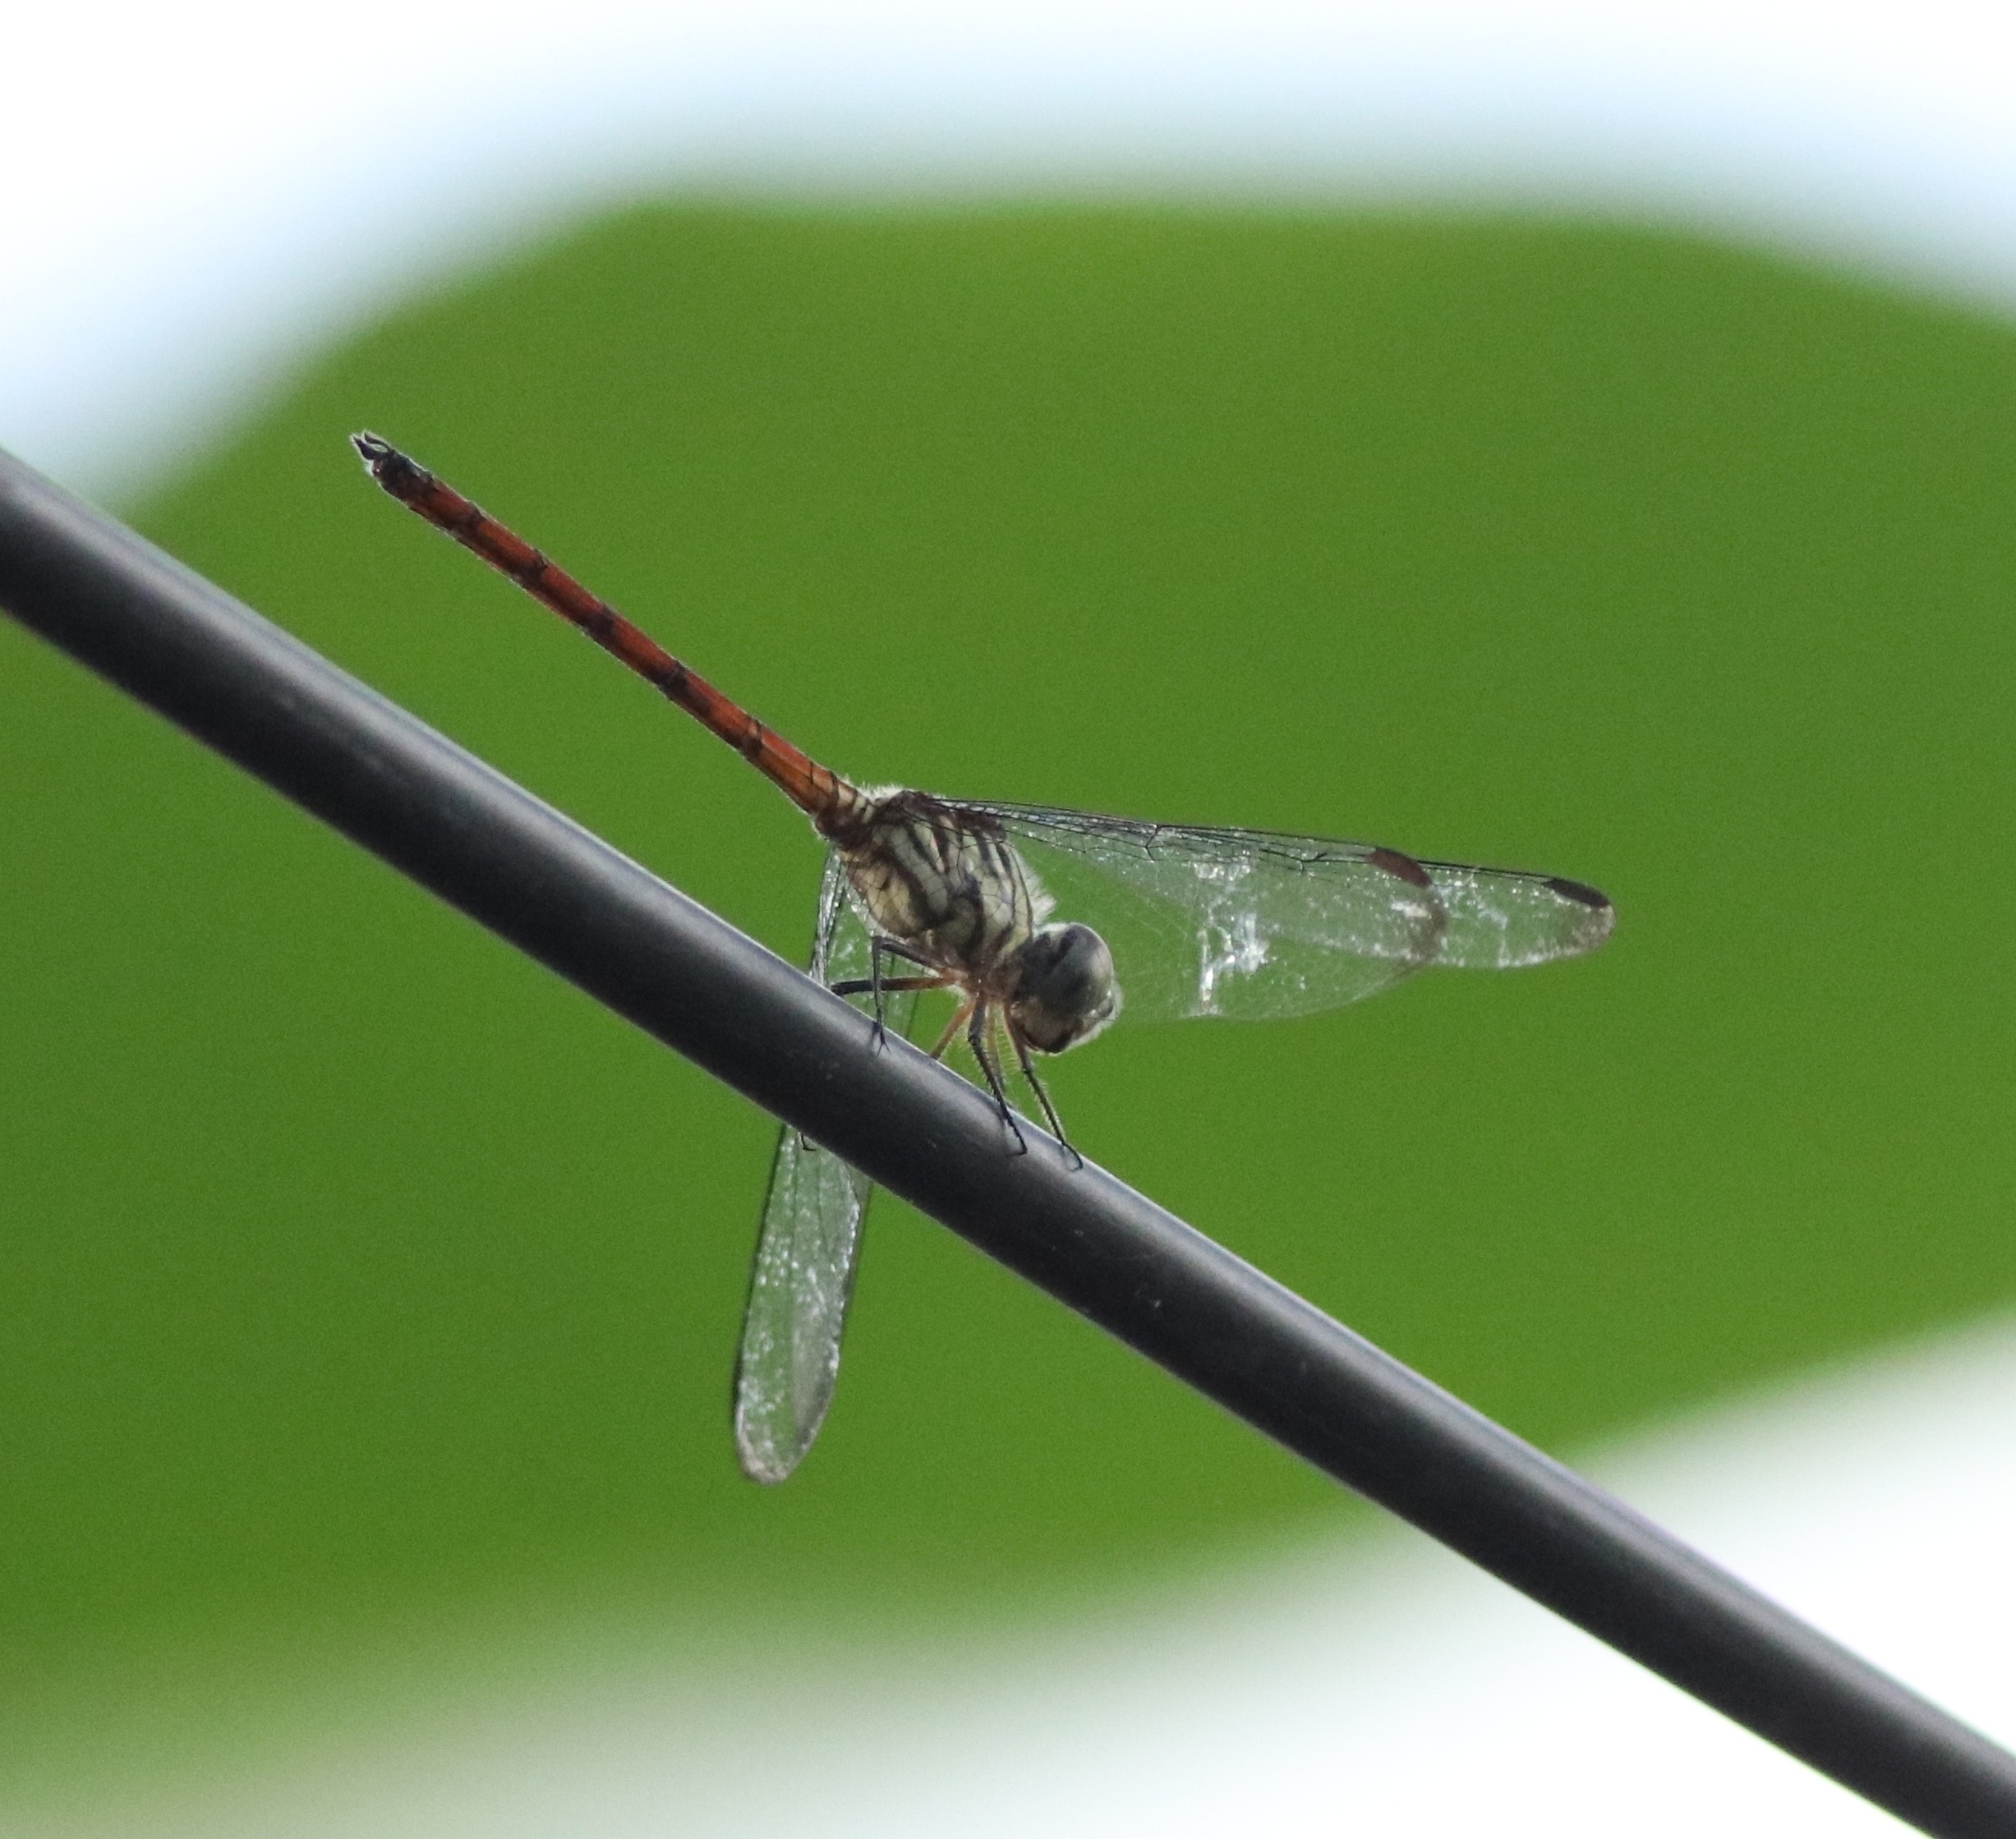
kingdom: Animalia
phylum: Arthropoda
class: Insecta
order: Odonata
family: Libellulidae
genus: Lathrecista
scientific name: Lathrecista asiatica
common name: Scarlet grenadier
